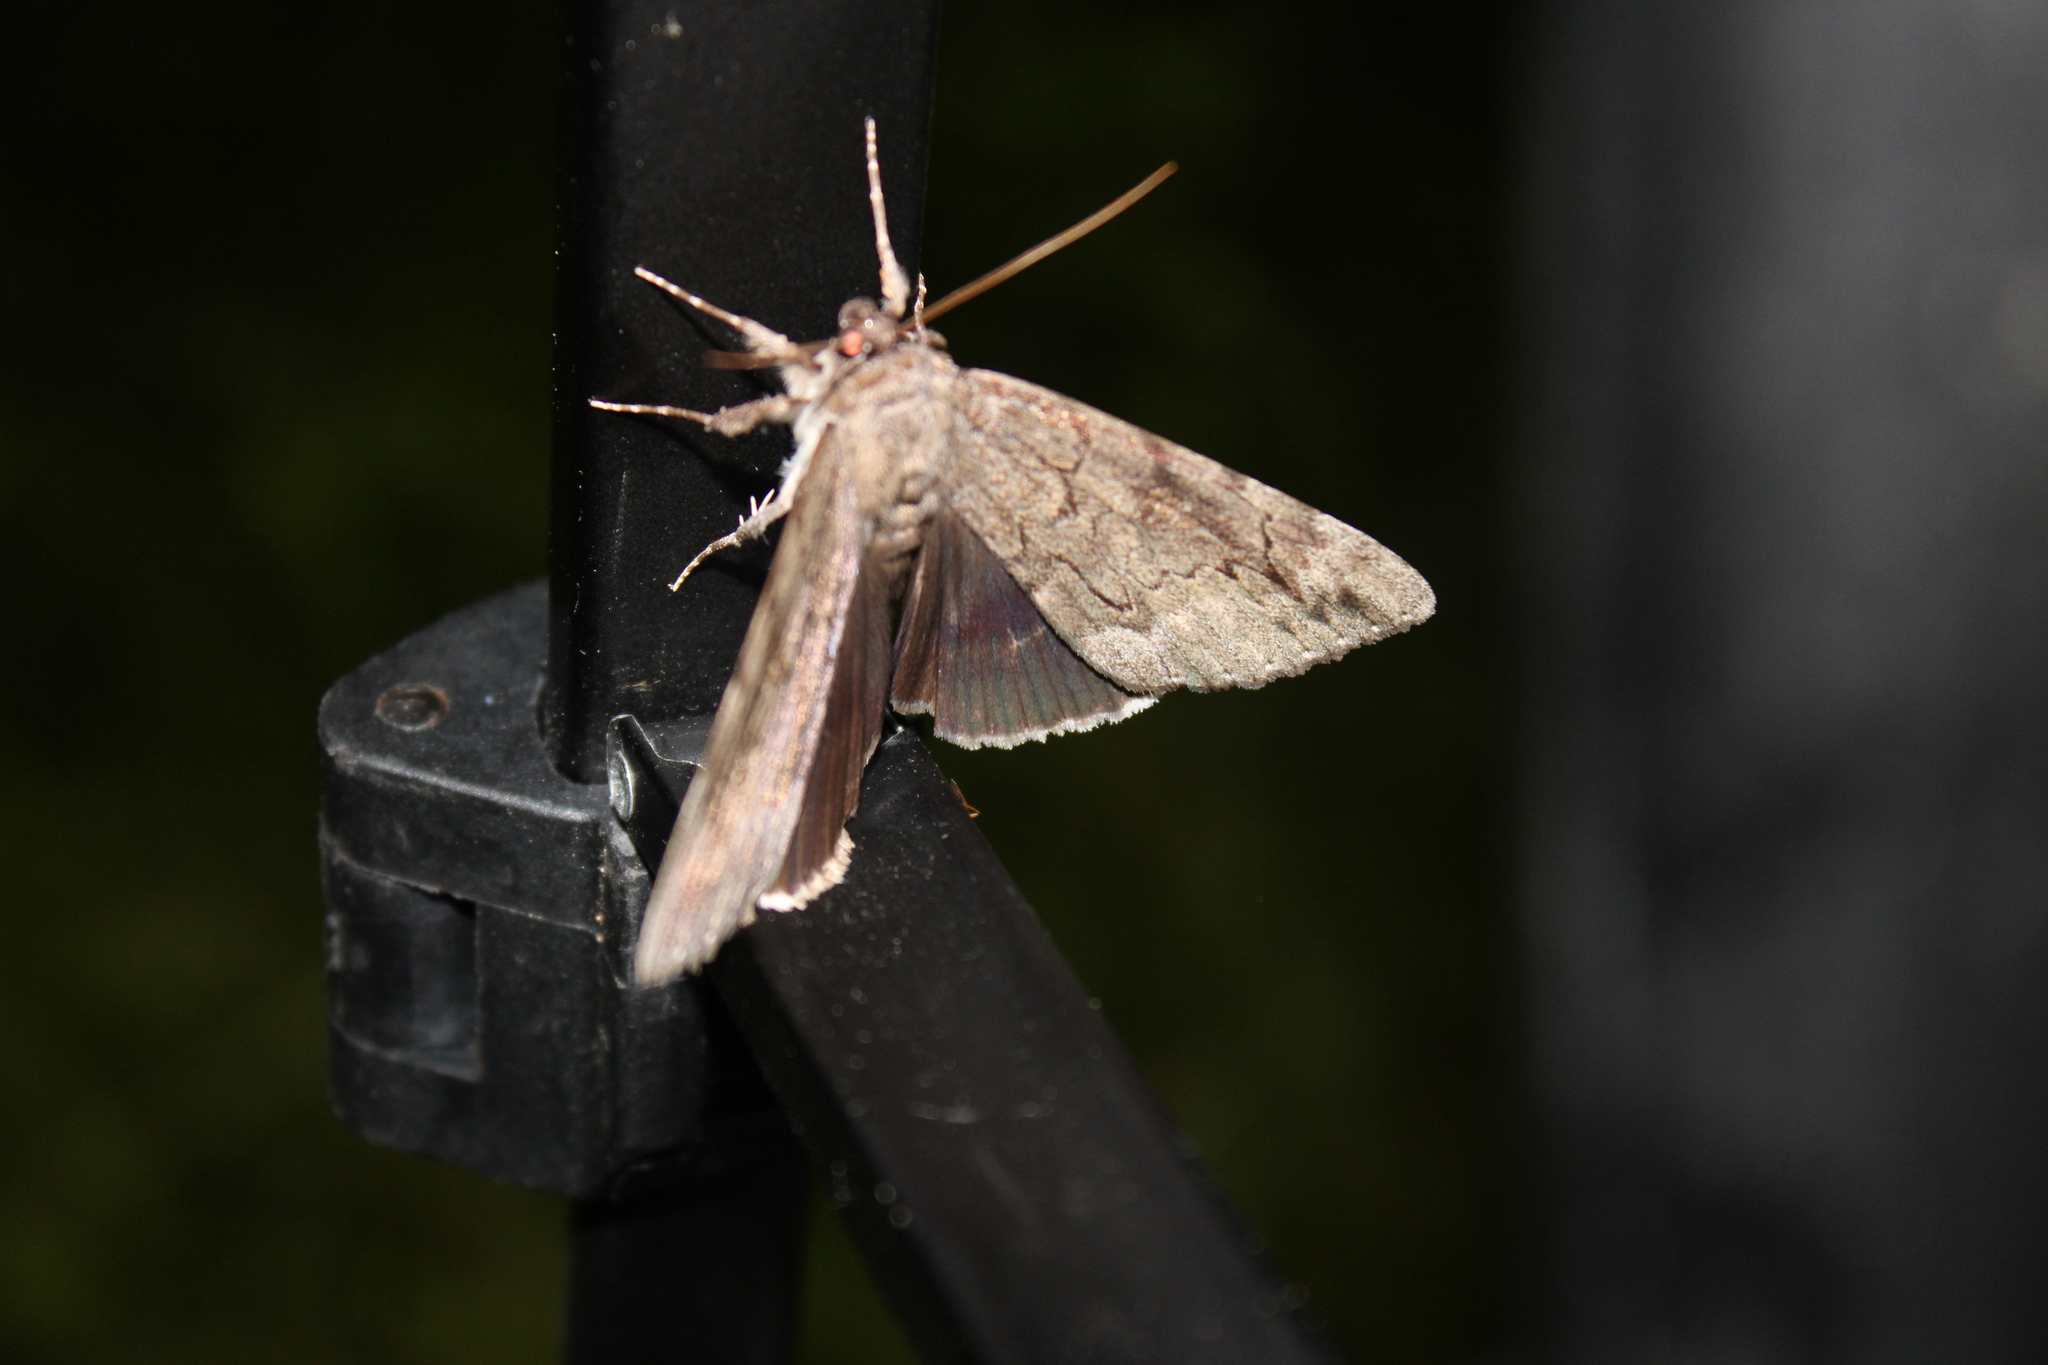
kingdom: Animalia
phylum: Arthropoda
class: Insecta
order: Lepidoptera
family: Erebidae
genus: Catocala
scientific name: Catocala obscura
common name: Obscure underwing moth
